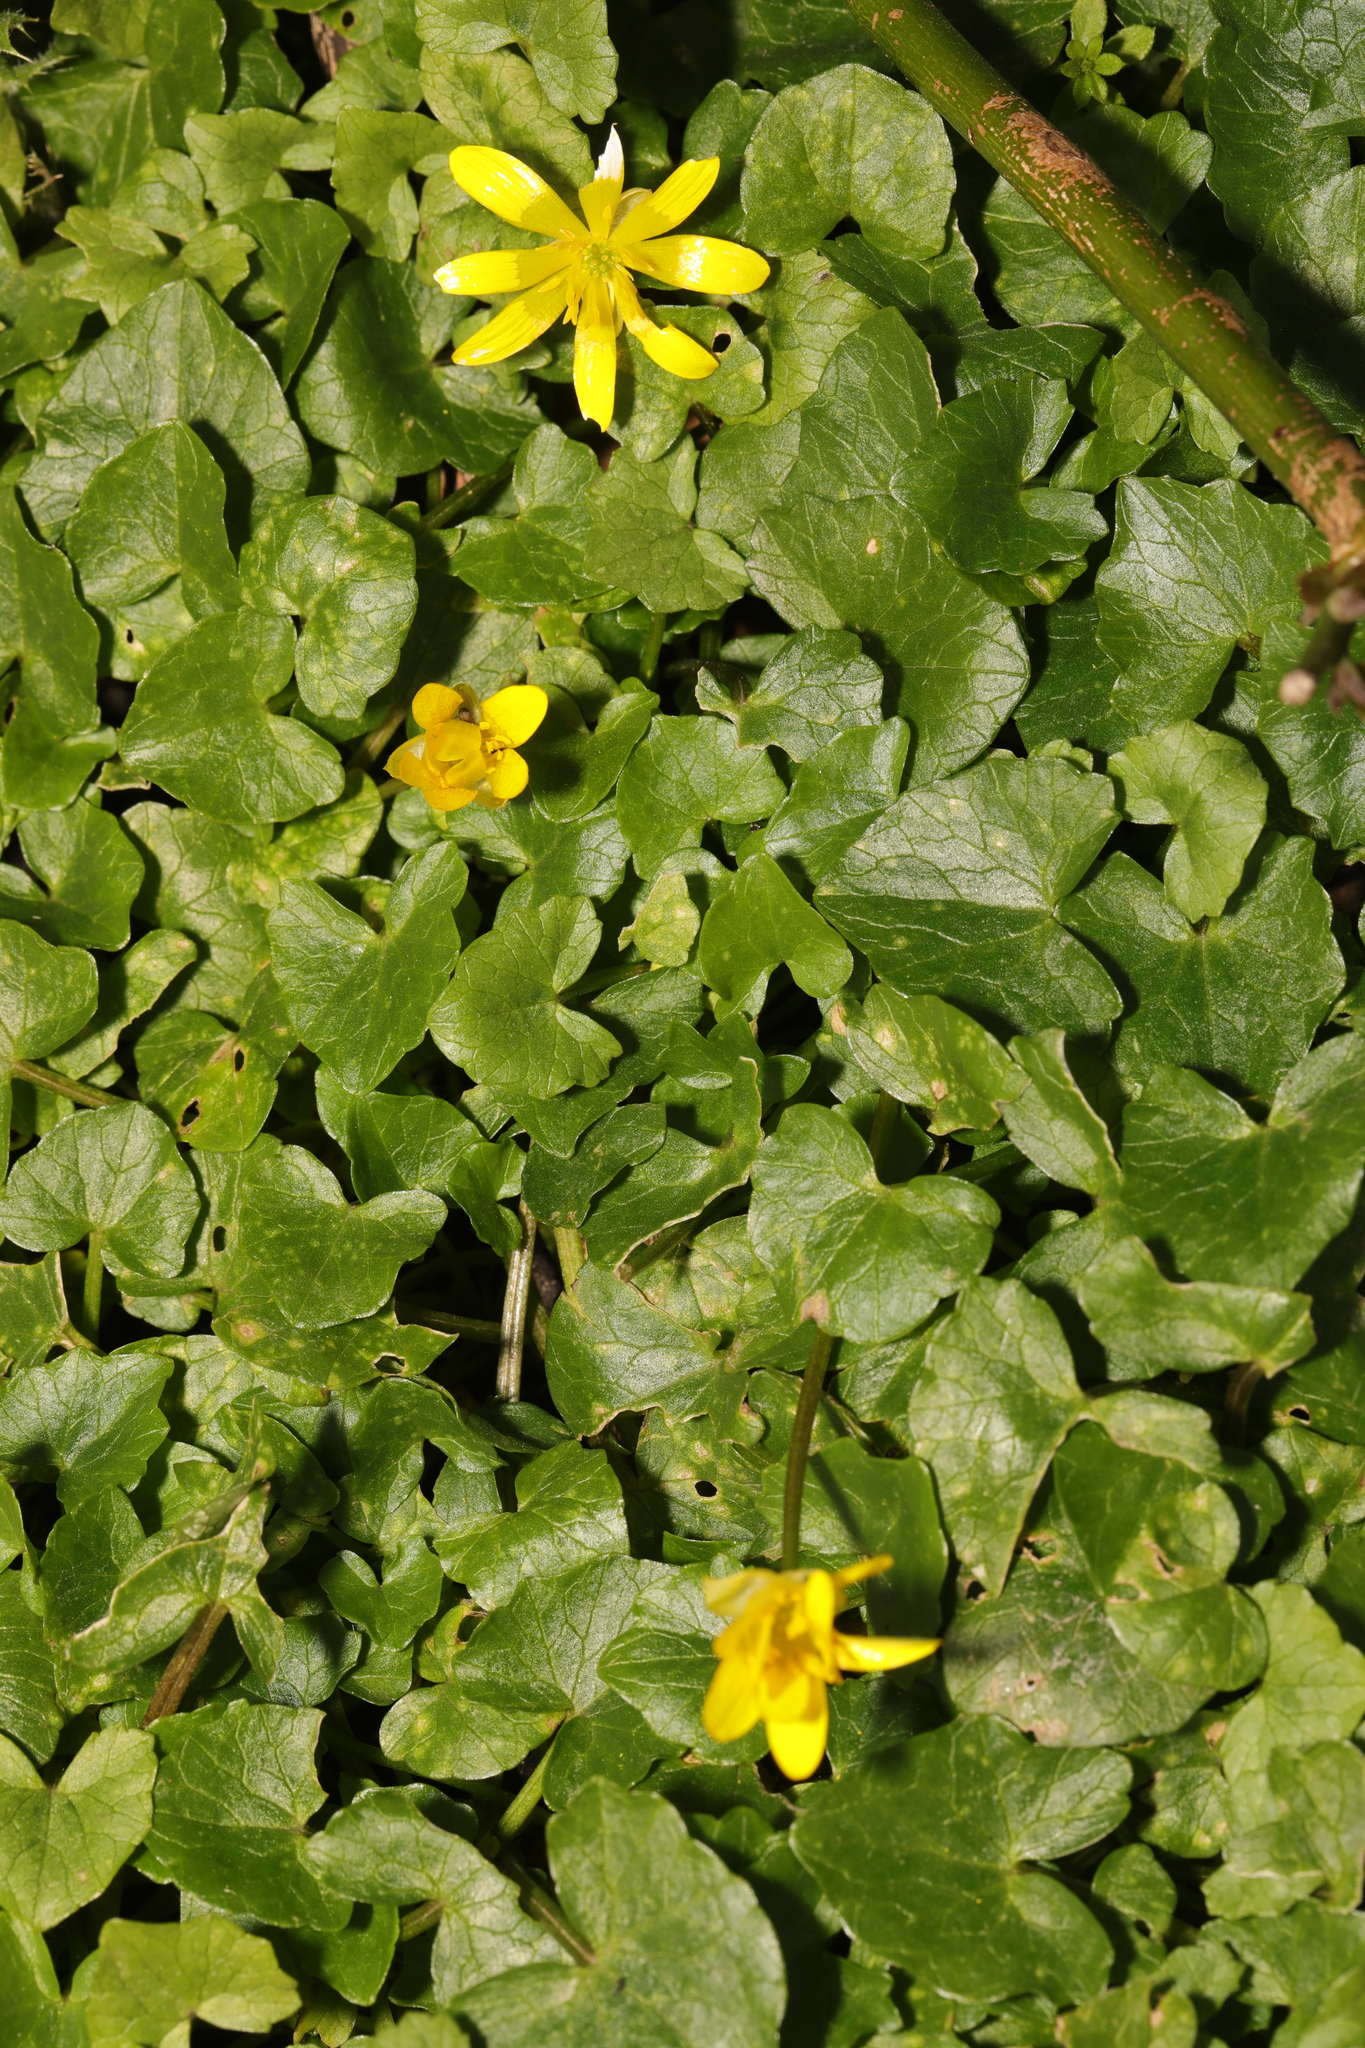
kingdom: Plantae
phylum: Tracheophyta
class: Magnoliopsida
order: Ranunculales
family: Ranunculaceae
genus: Ficaria
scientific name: Ficaria verna
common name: Lesser celandine
